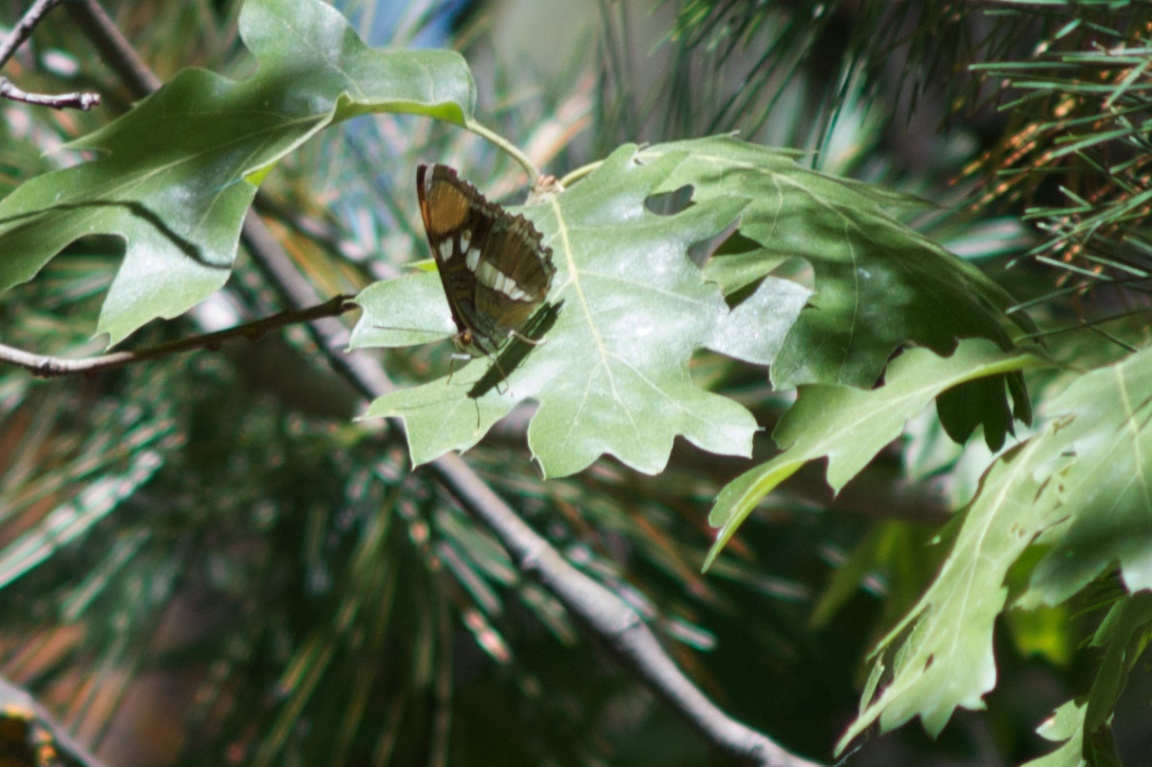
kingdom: Animalia
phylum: Arthropoda
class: Insecta
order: Lepidoptera
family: Nymphalidae
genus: Limenitis
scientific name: Limenitis bredowii
